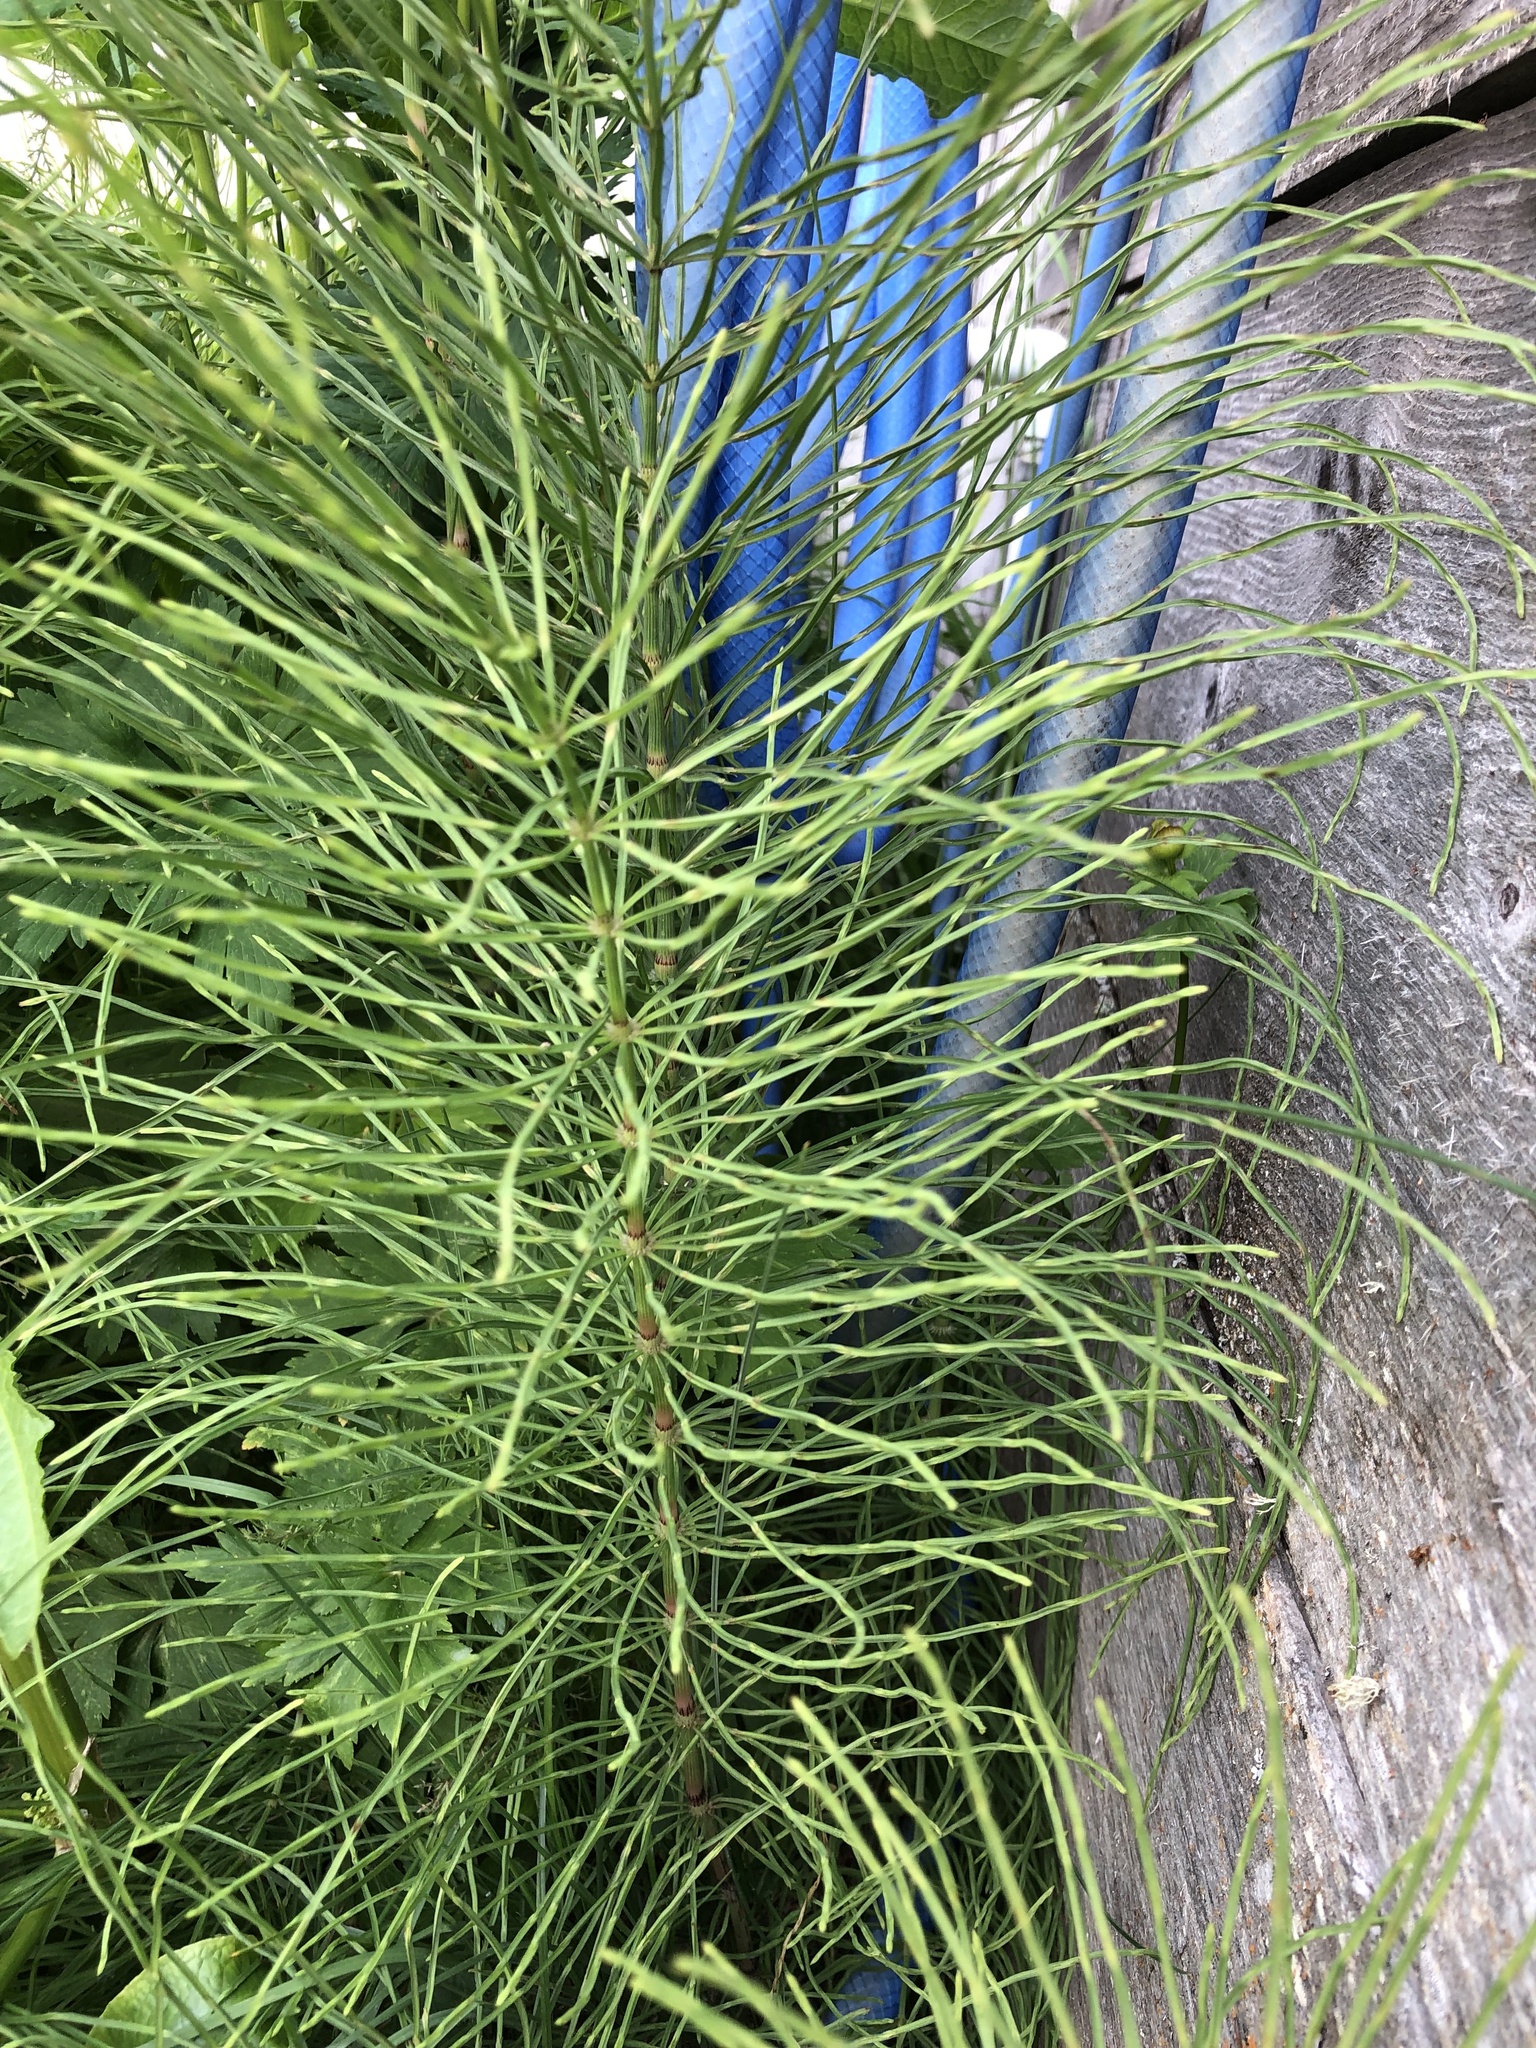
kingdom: Plantae
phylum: Tracheophyta
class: Polypodiopsida
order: Equisetales
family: Equisetaceae
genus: Equisetum
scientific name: Equisetum arvense
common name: Field horsetail
